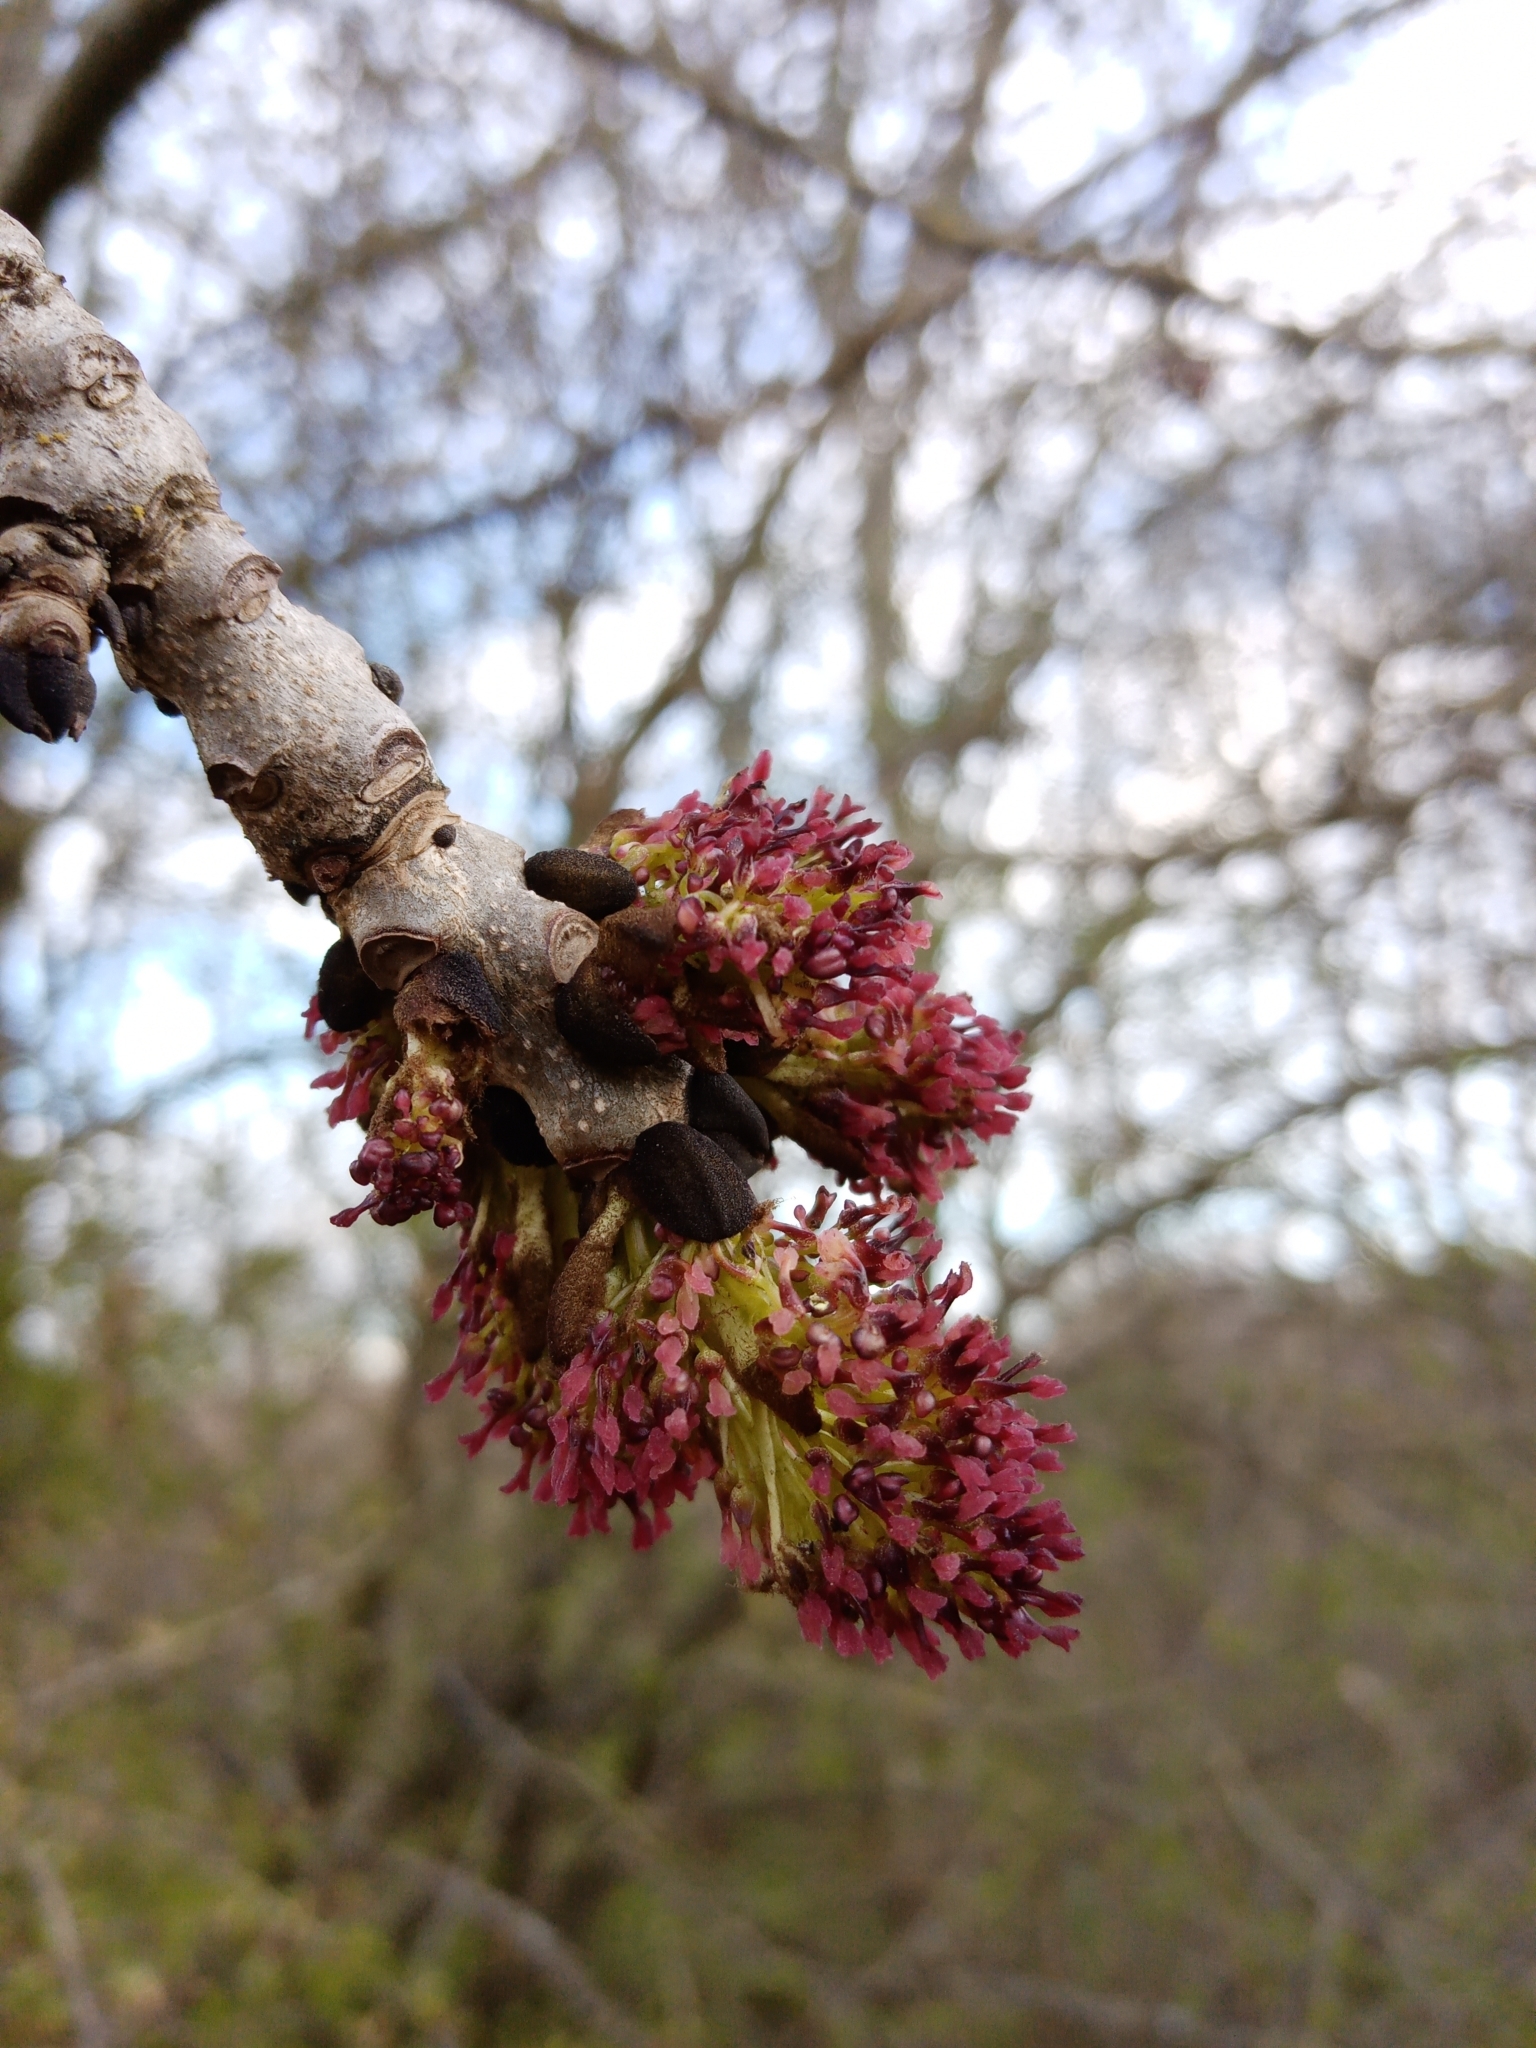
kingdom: Plantae
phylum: Tracheophyta
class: Magnoliopsida
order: Lamiales
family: Oleaceae
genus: Fraxinus
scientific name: Fraxinus excelsior
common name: European ash
